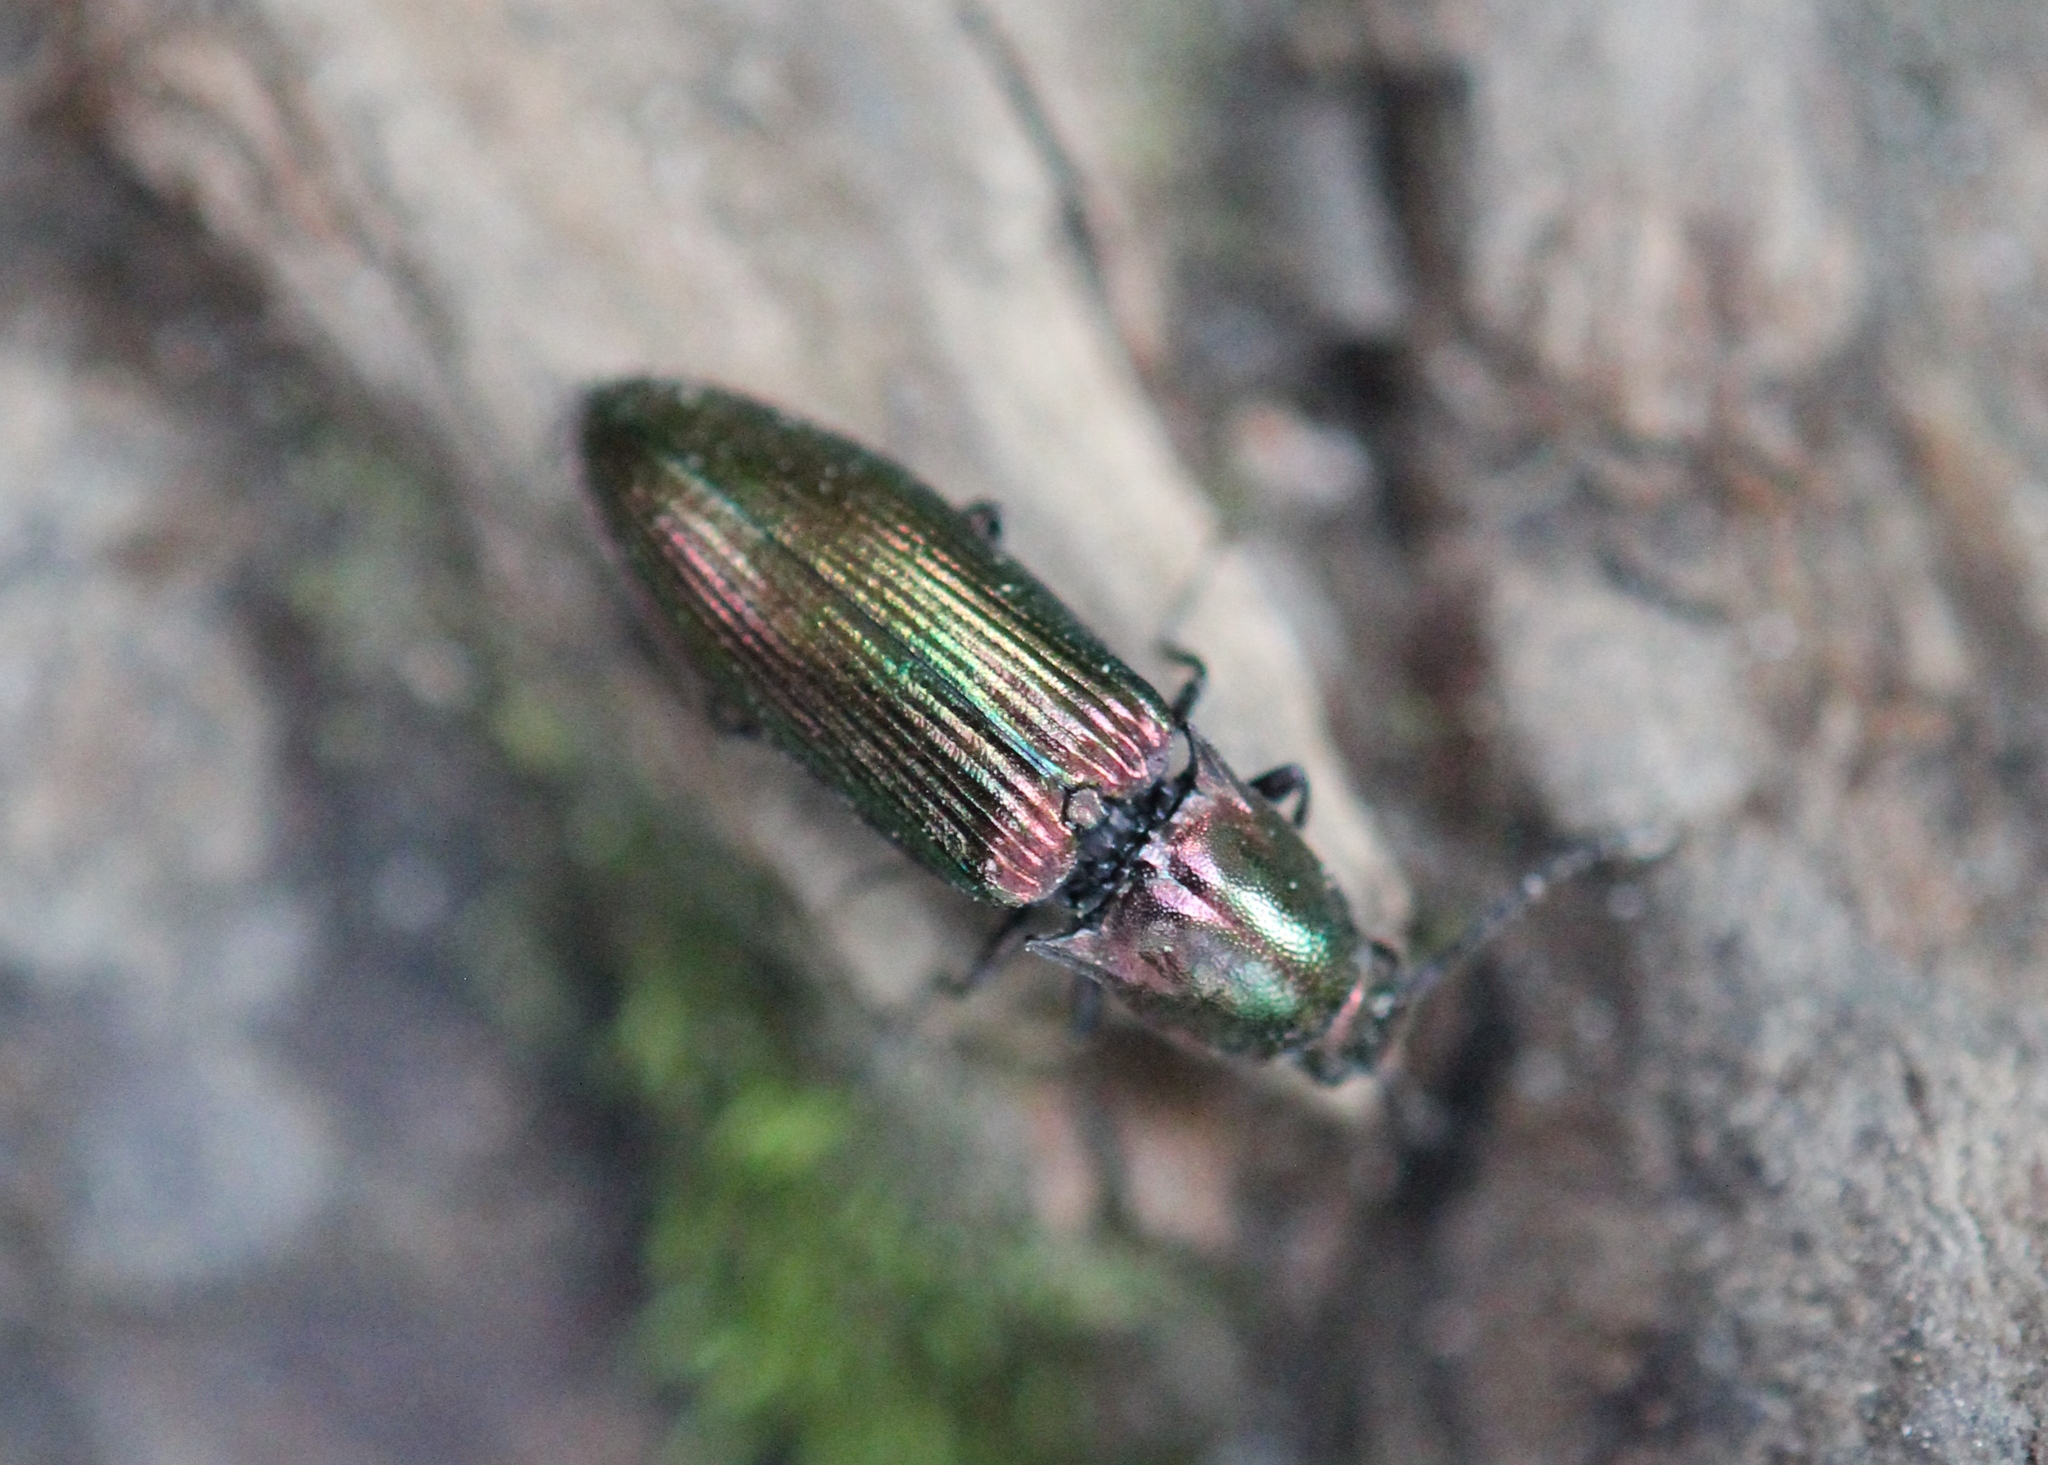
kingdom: Animalia
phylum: Arthropoda
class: Insecta
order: Coleoptera
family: Elateridae
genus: Nitidolimonius
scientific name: Nitidolimonius resplendens
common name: Resplendent click beetle
